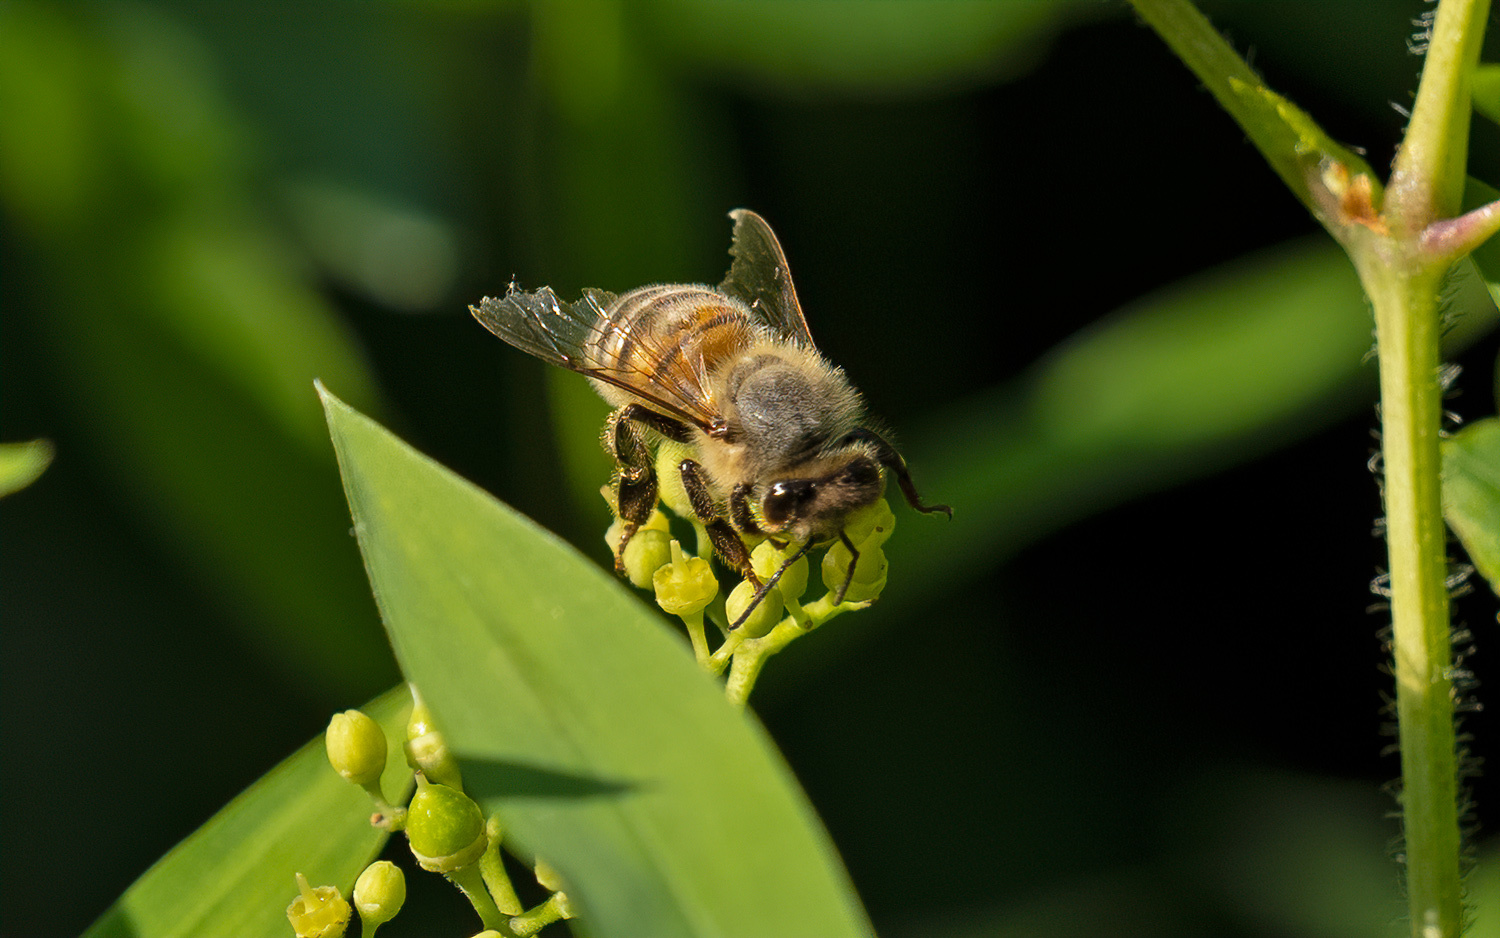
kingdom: Animalia
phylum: Arthropoda
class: Insecta
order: Hymenoptera
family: Apidae
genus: Apis
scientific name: Apis mellifera
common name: Honey bee
